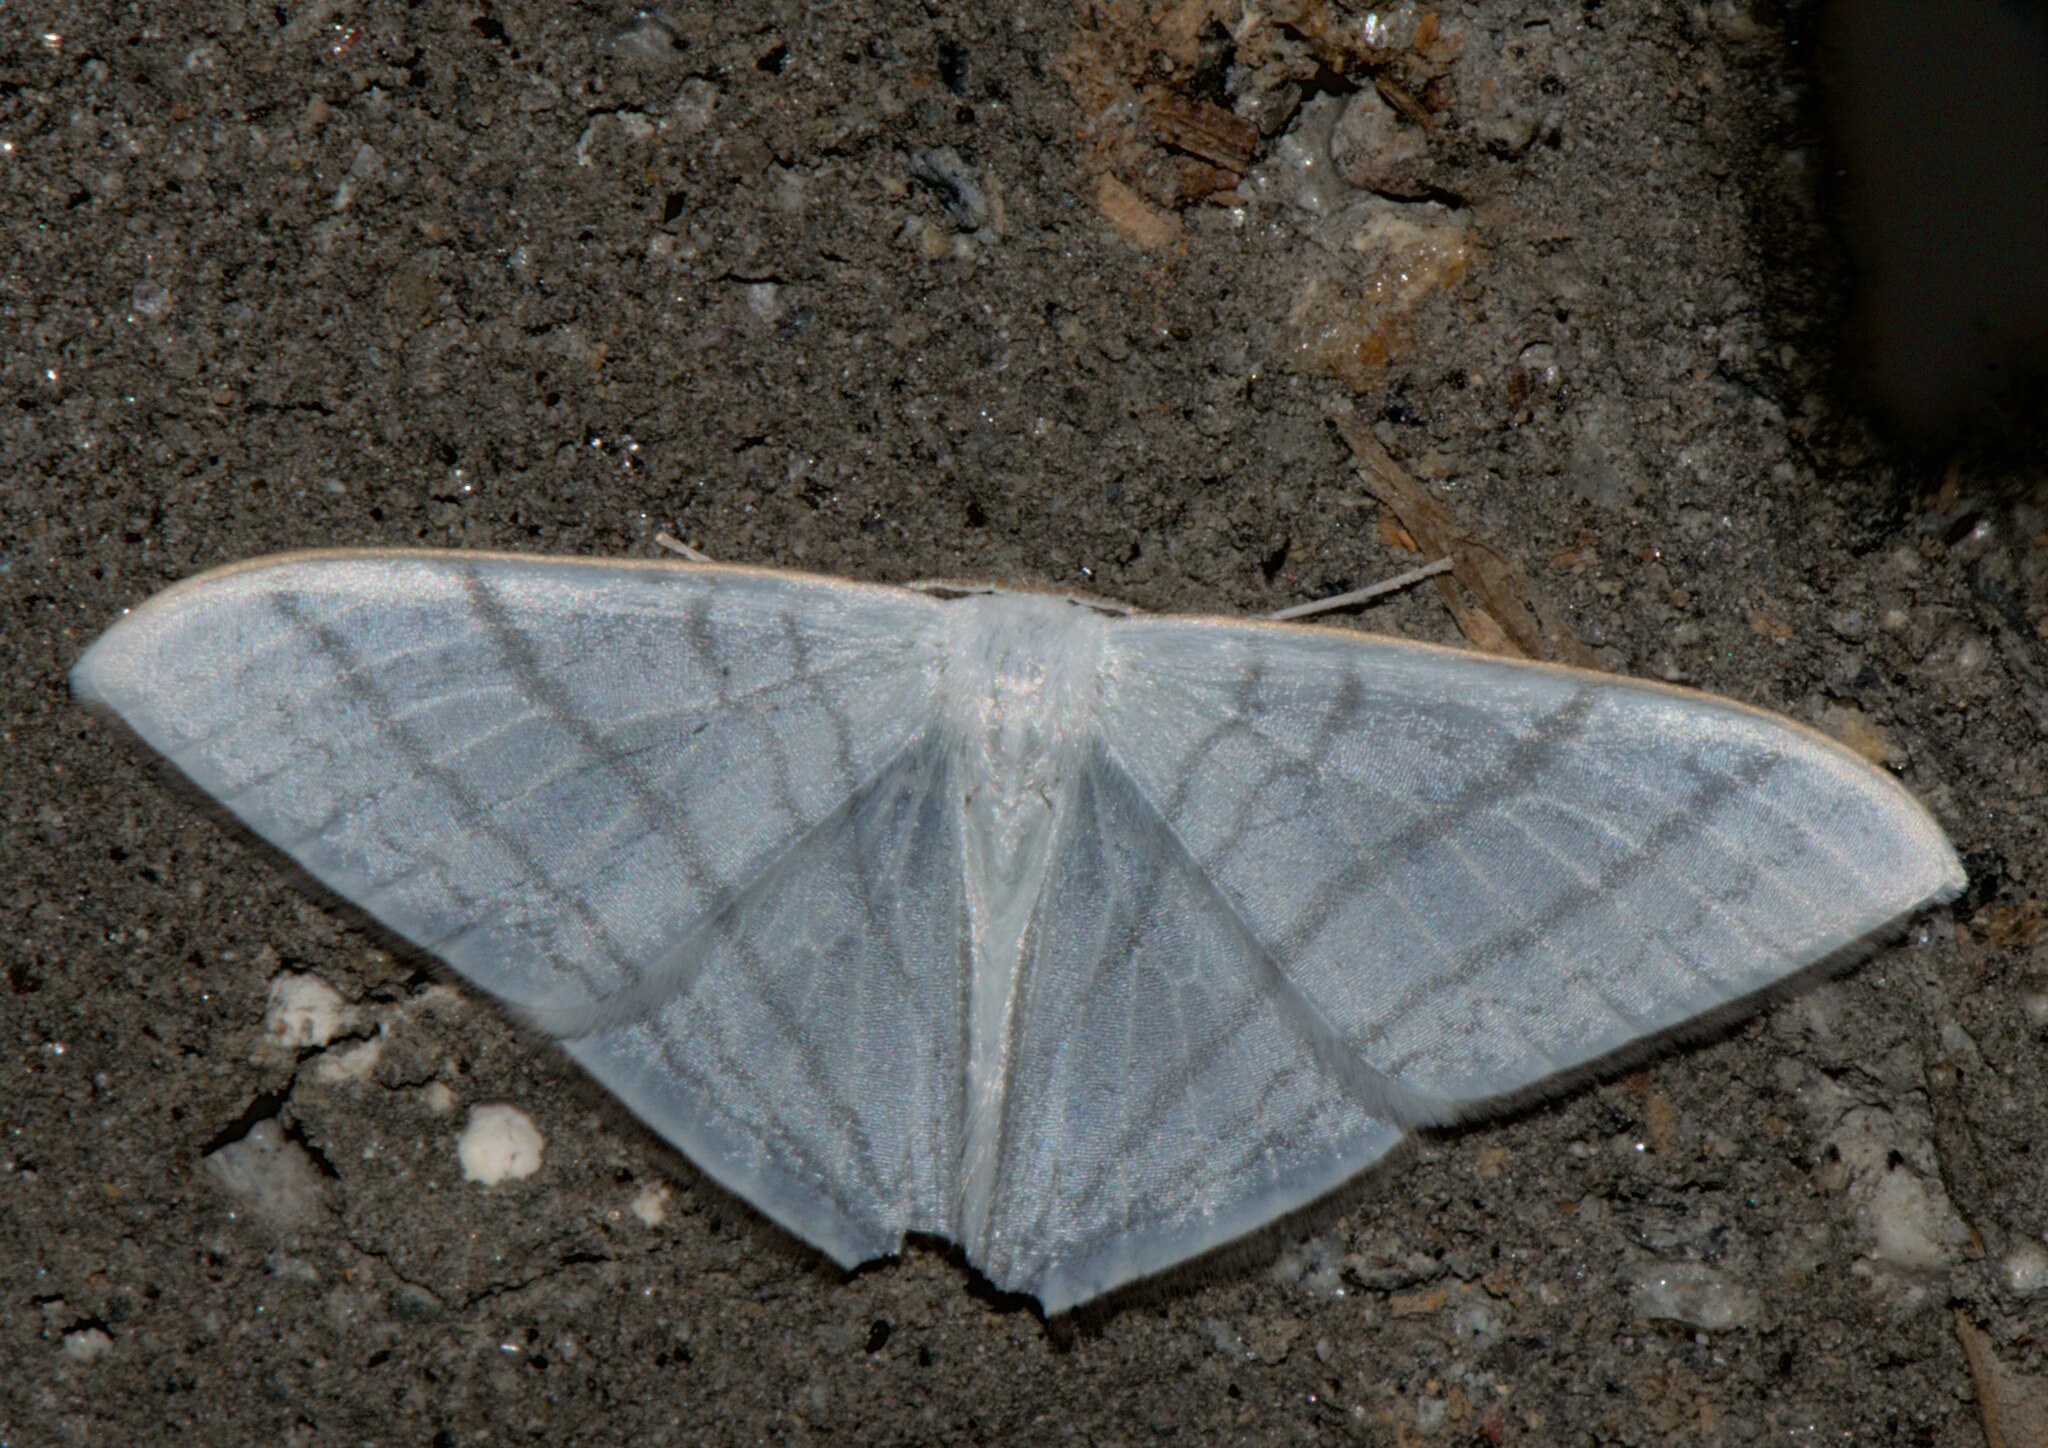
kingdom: Animalia
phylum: Arthropoda
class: Insecta
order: Lepidoptera
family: Drepanidae
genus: Ditrigona
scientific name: Ditrigona triangularia
